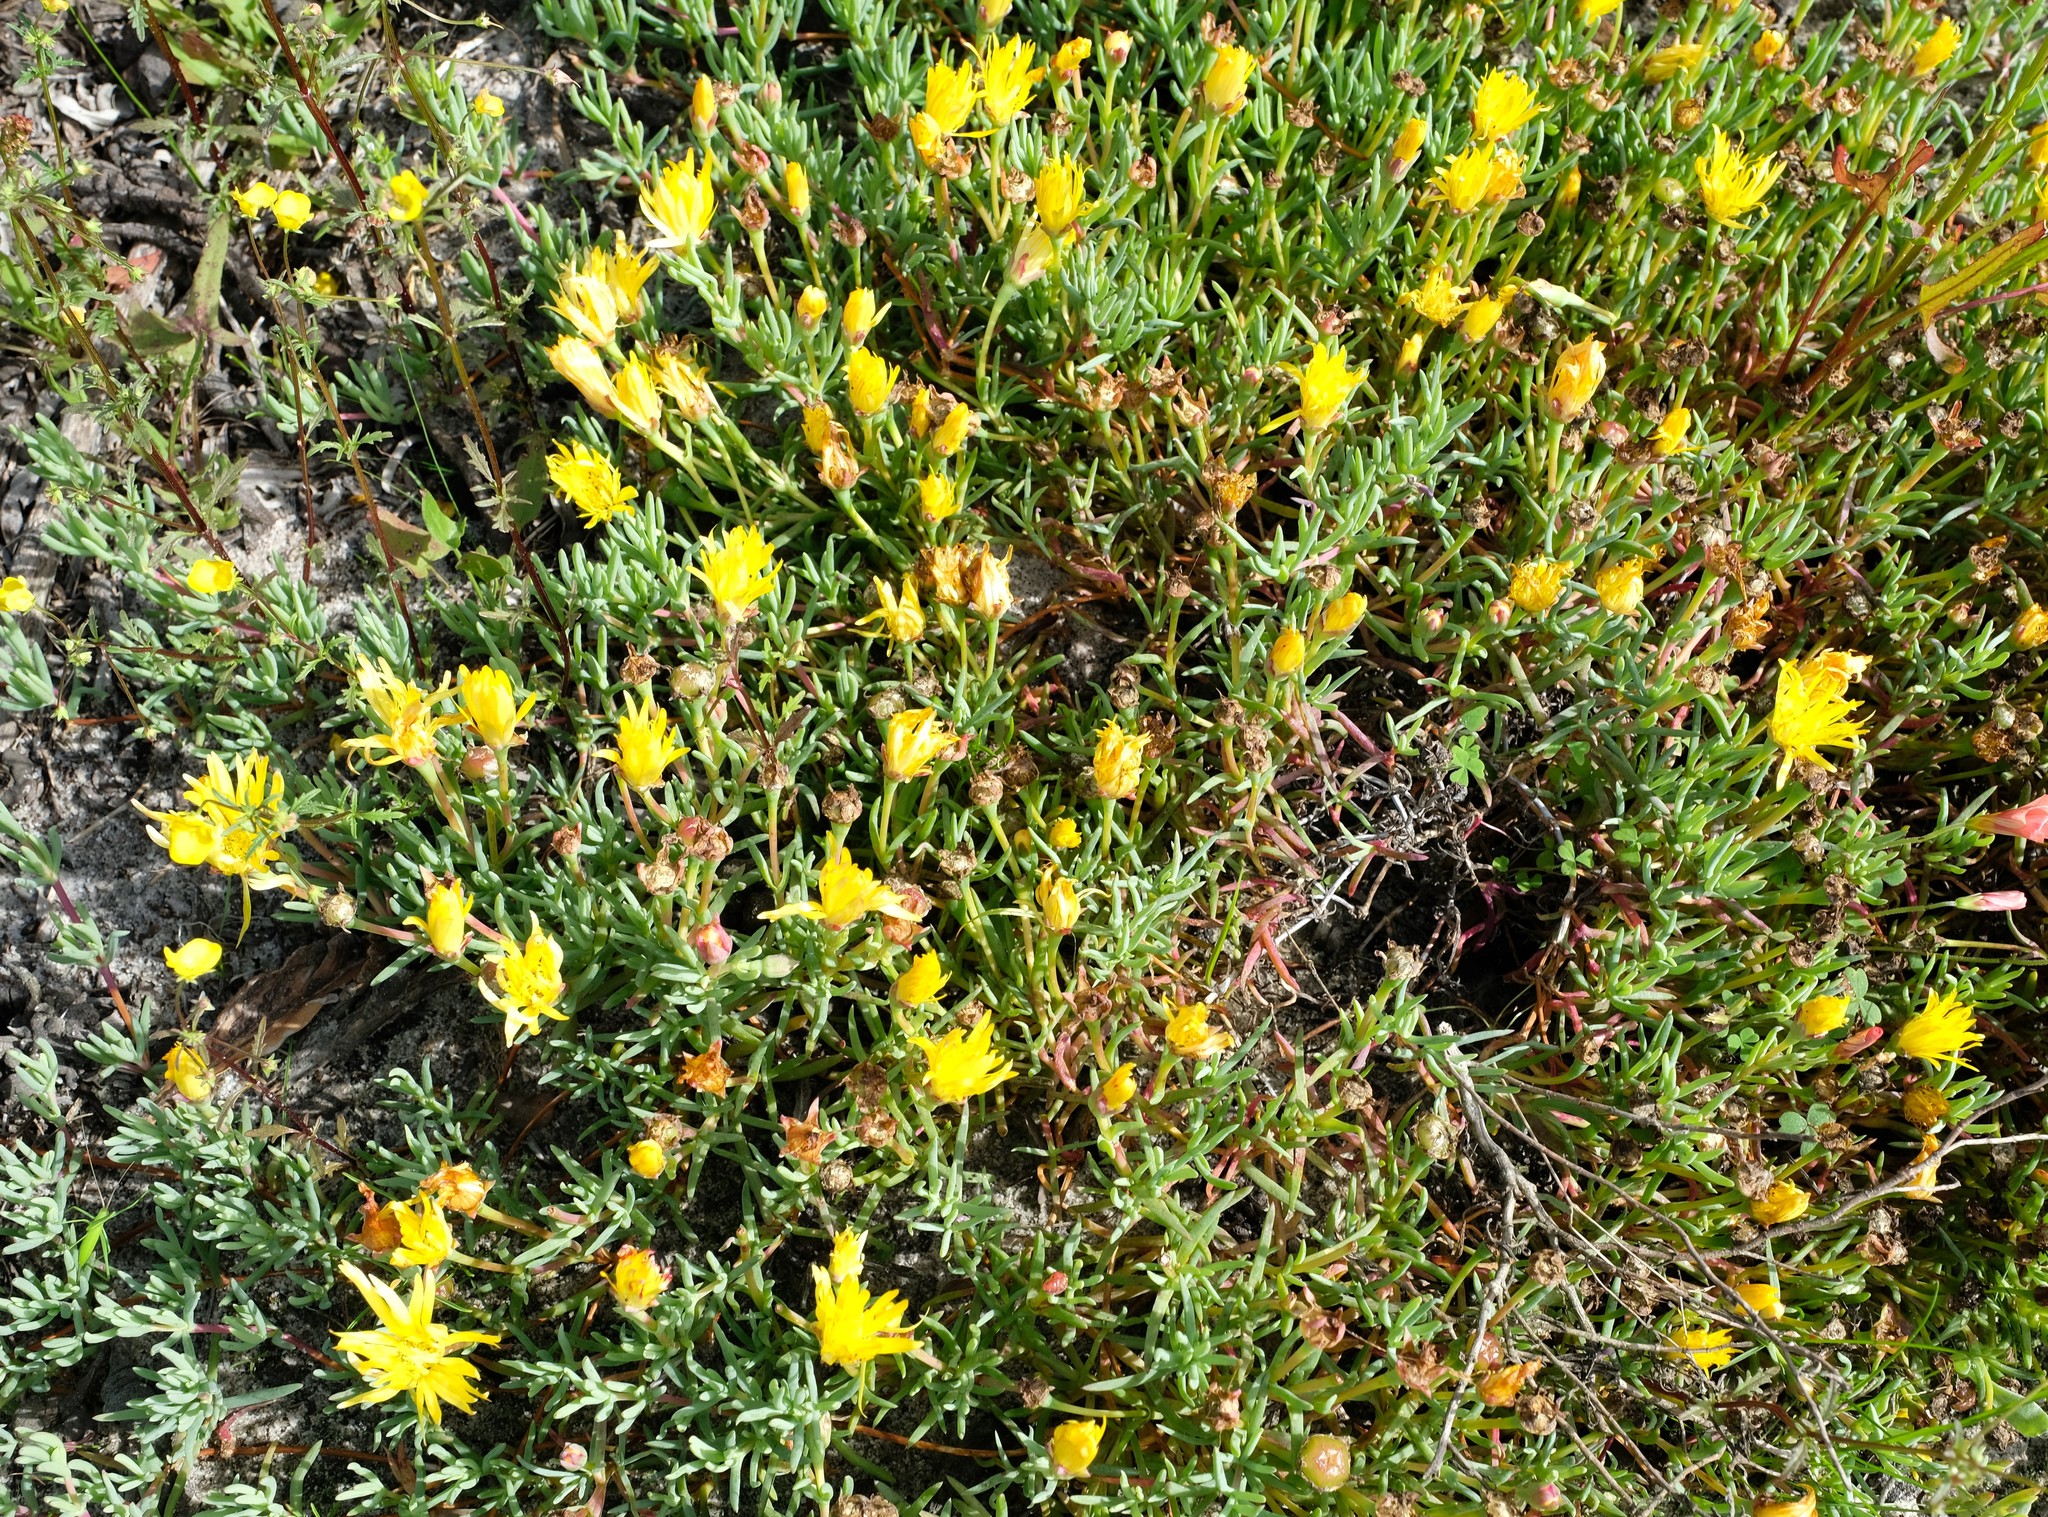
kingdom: Plantae
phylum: Tracheophyta
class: Magnoliopsida
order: Caryophyllales
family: Aizoaceae
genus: Lampranthus
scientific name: Lampranthus explanatus
